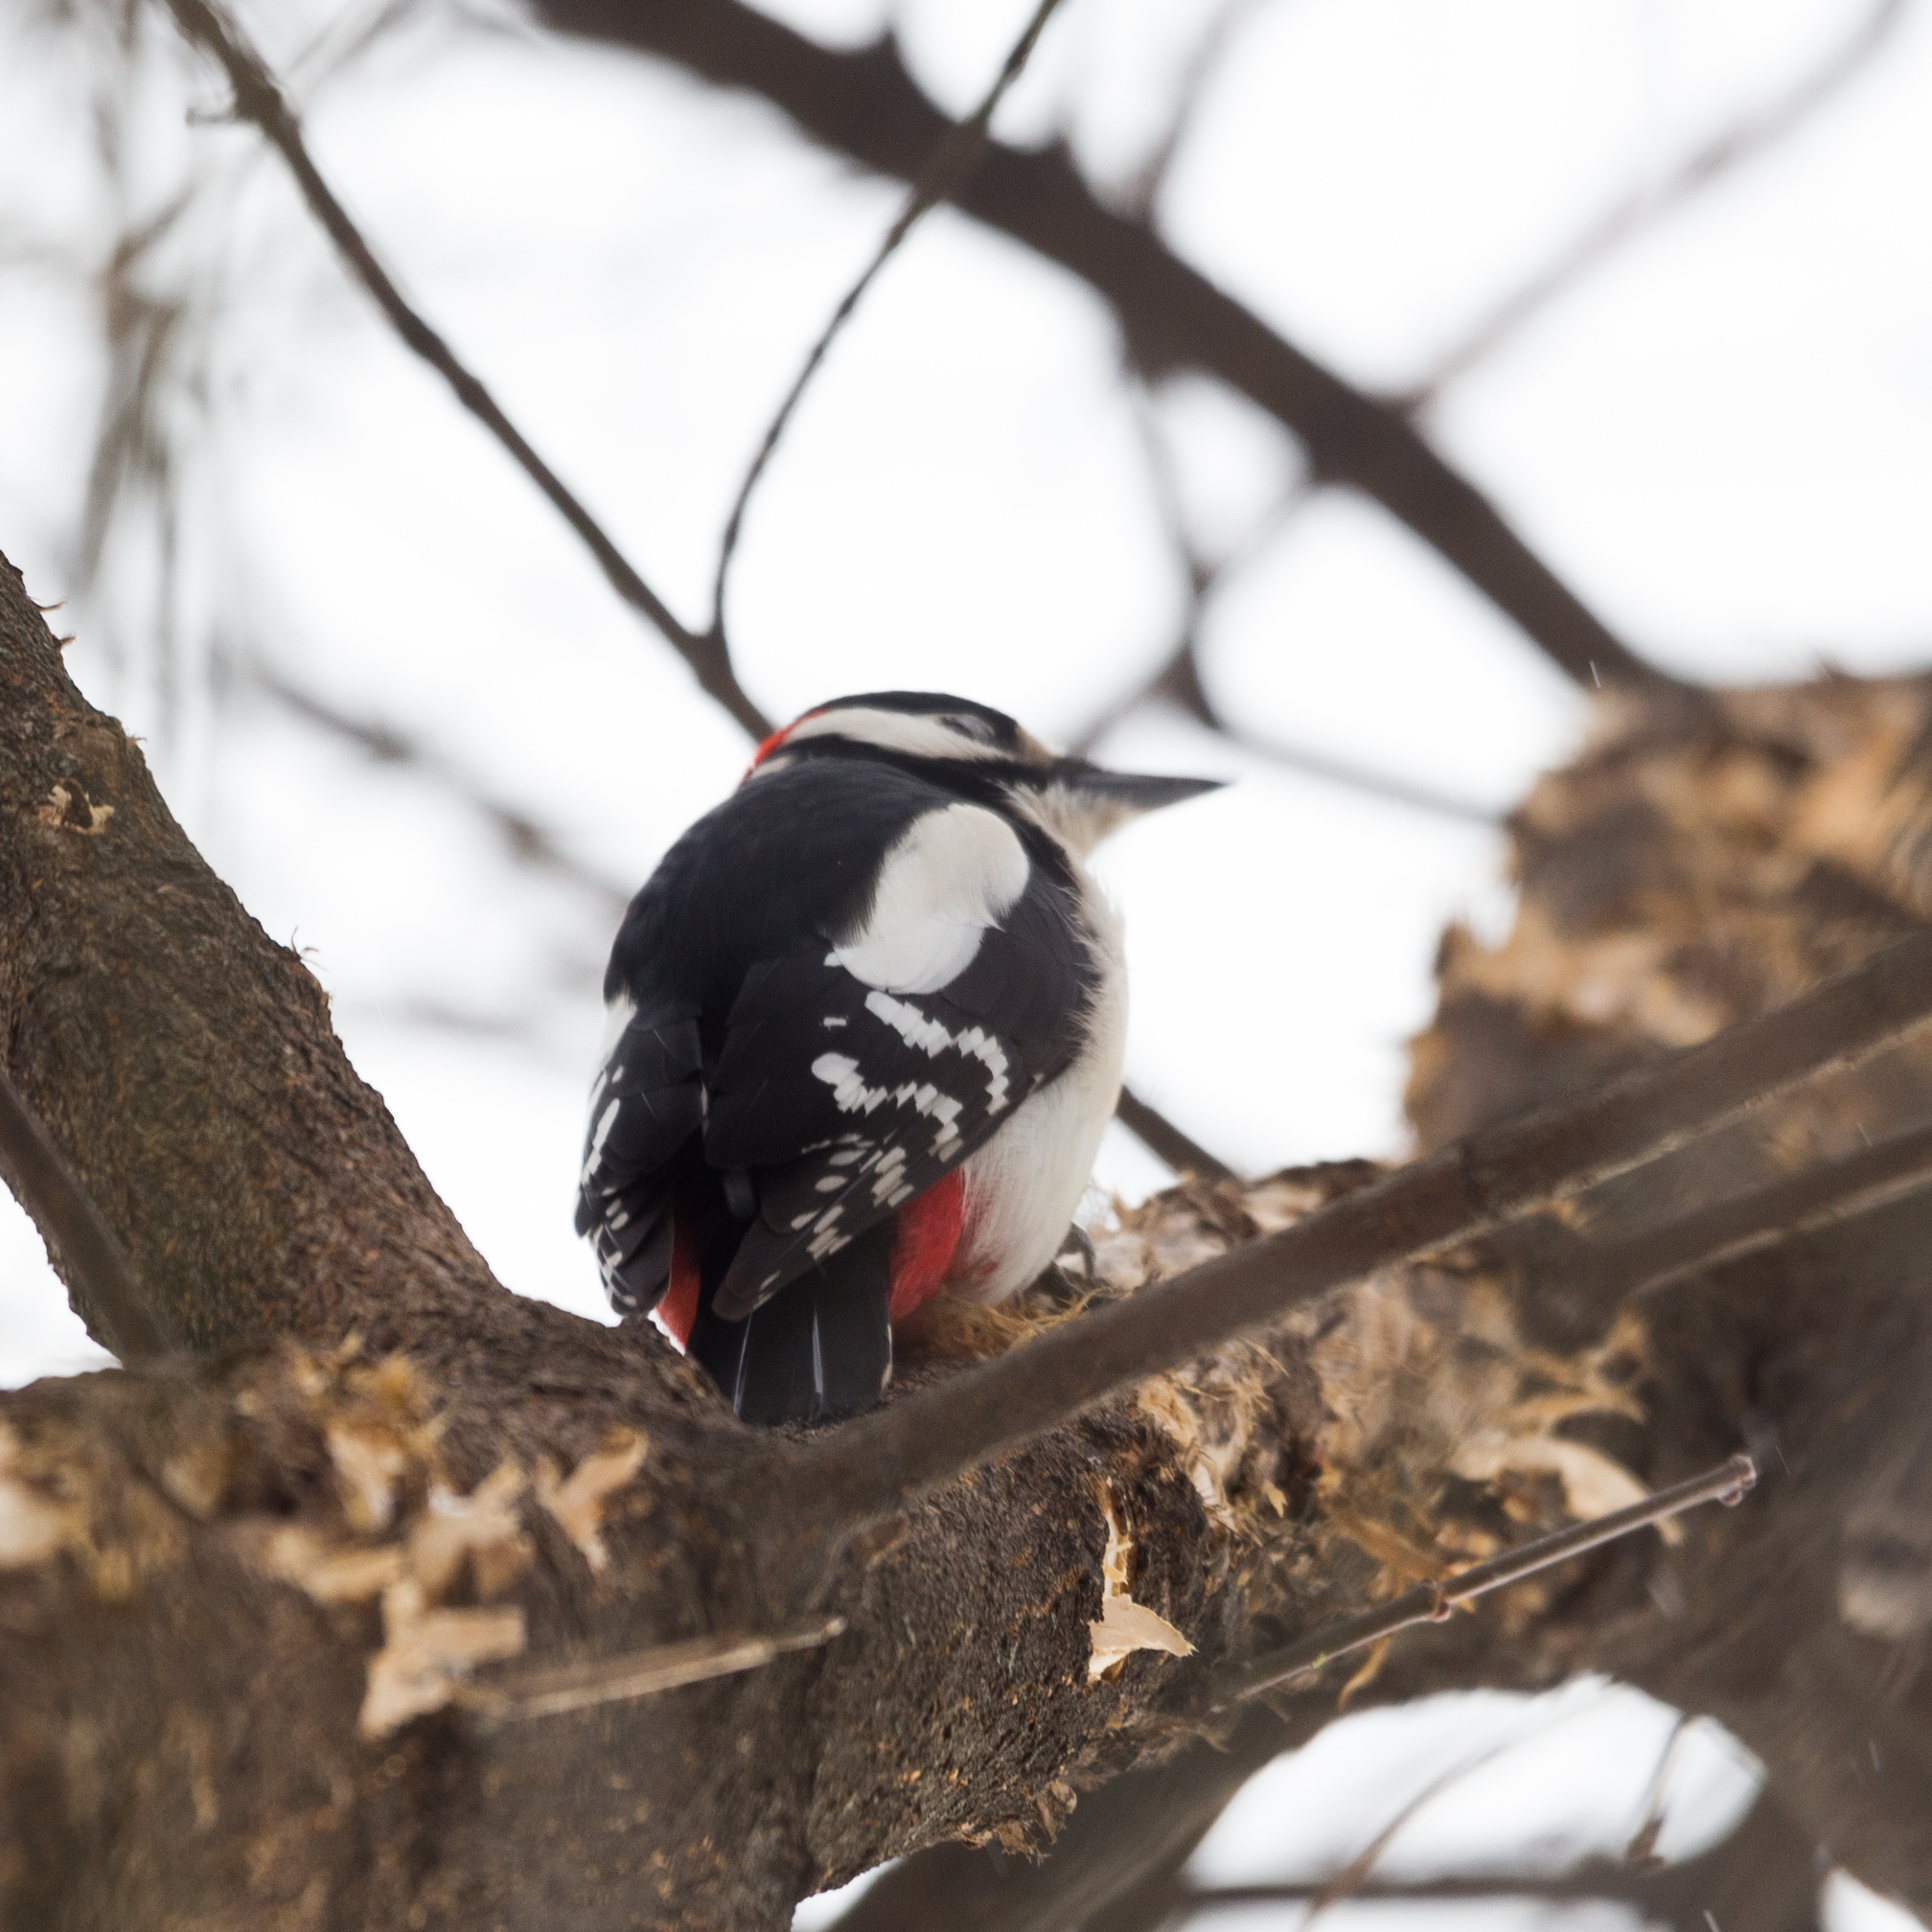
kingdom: Animalia
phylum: Chordata
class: Aves
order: Piciformes
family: Picidae
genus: Dendrocopos
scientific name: Dendrocopos major
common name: Great spotted woodpecker
